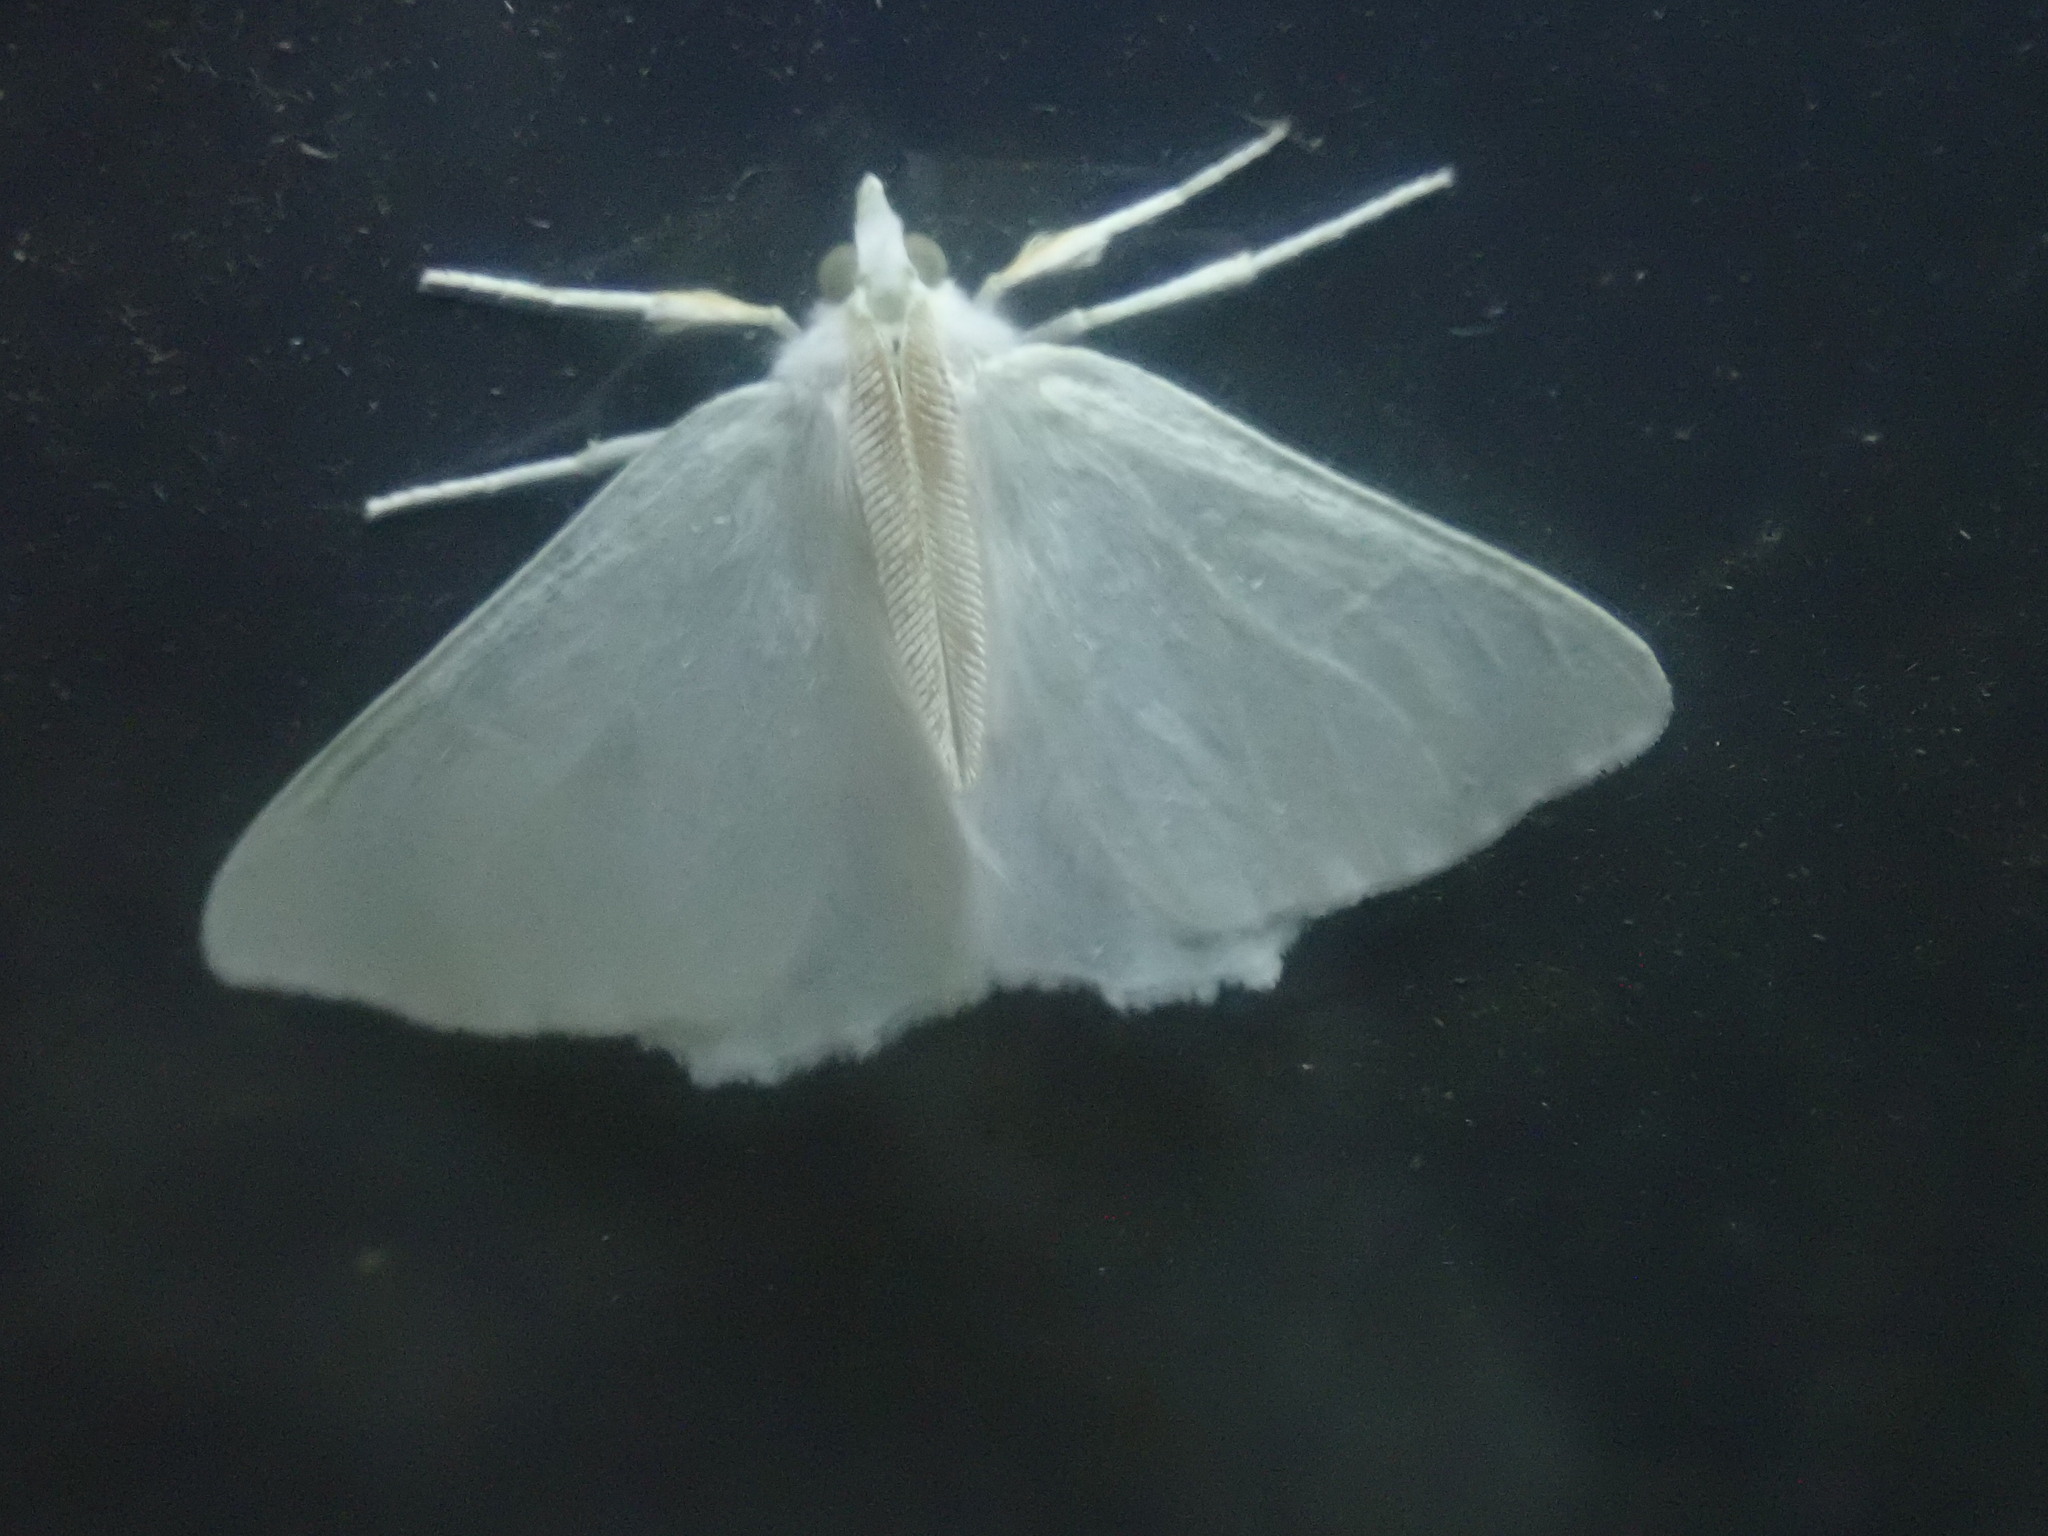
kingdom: Animalia
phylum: Arthropoda
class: Insecta
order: Lepidoptera
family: Geometridae
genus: Ennomos
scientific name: Ennomos subsignaria
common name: Elm spanworm
